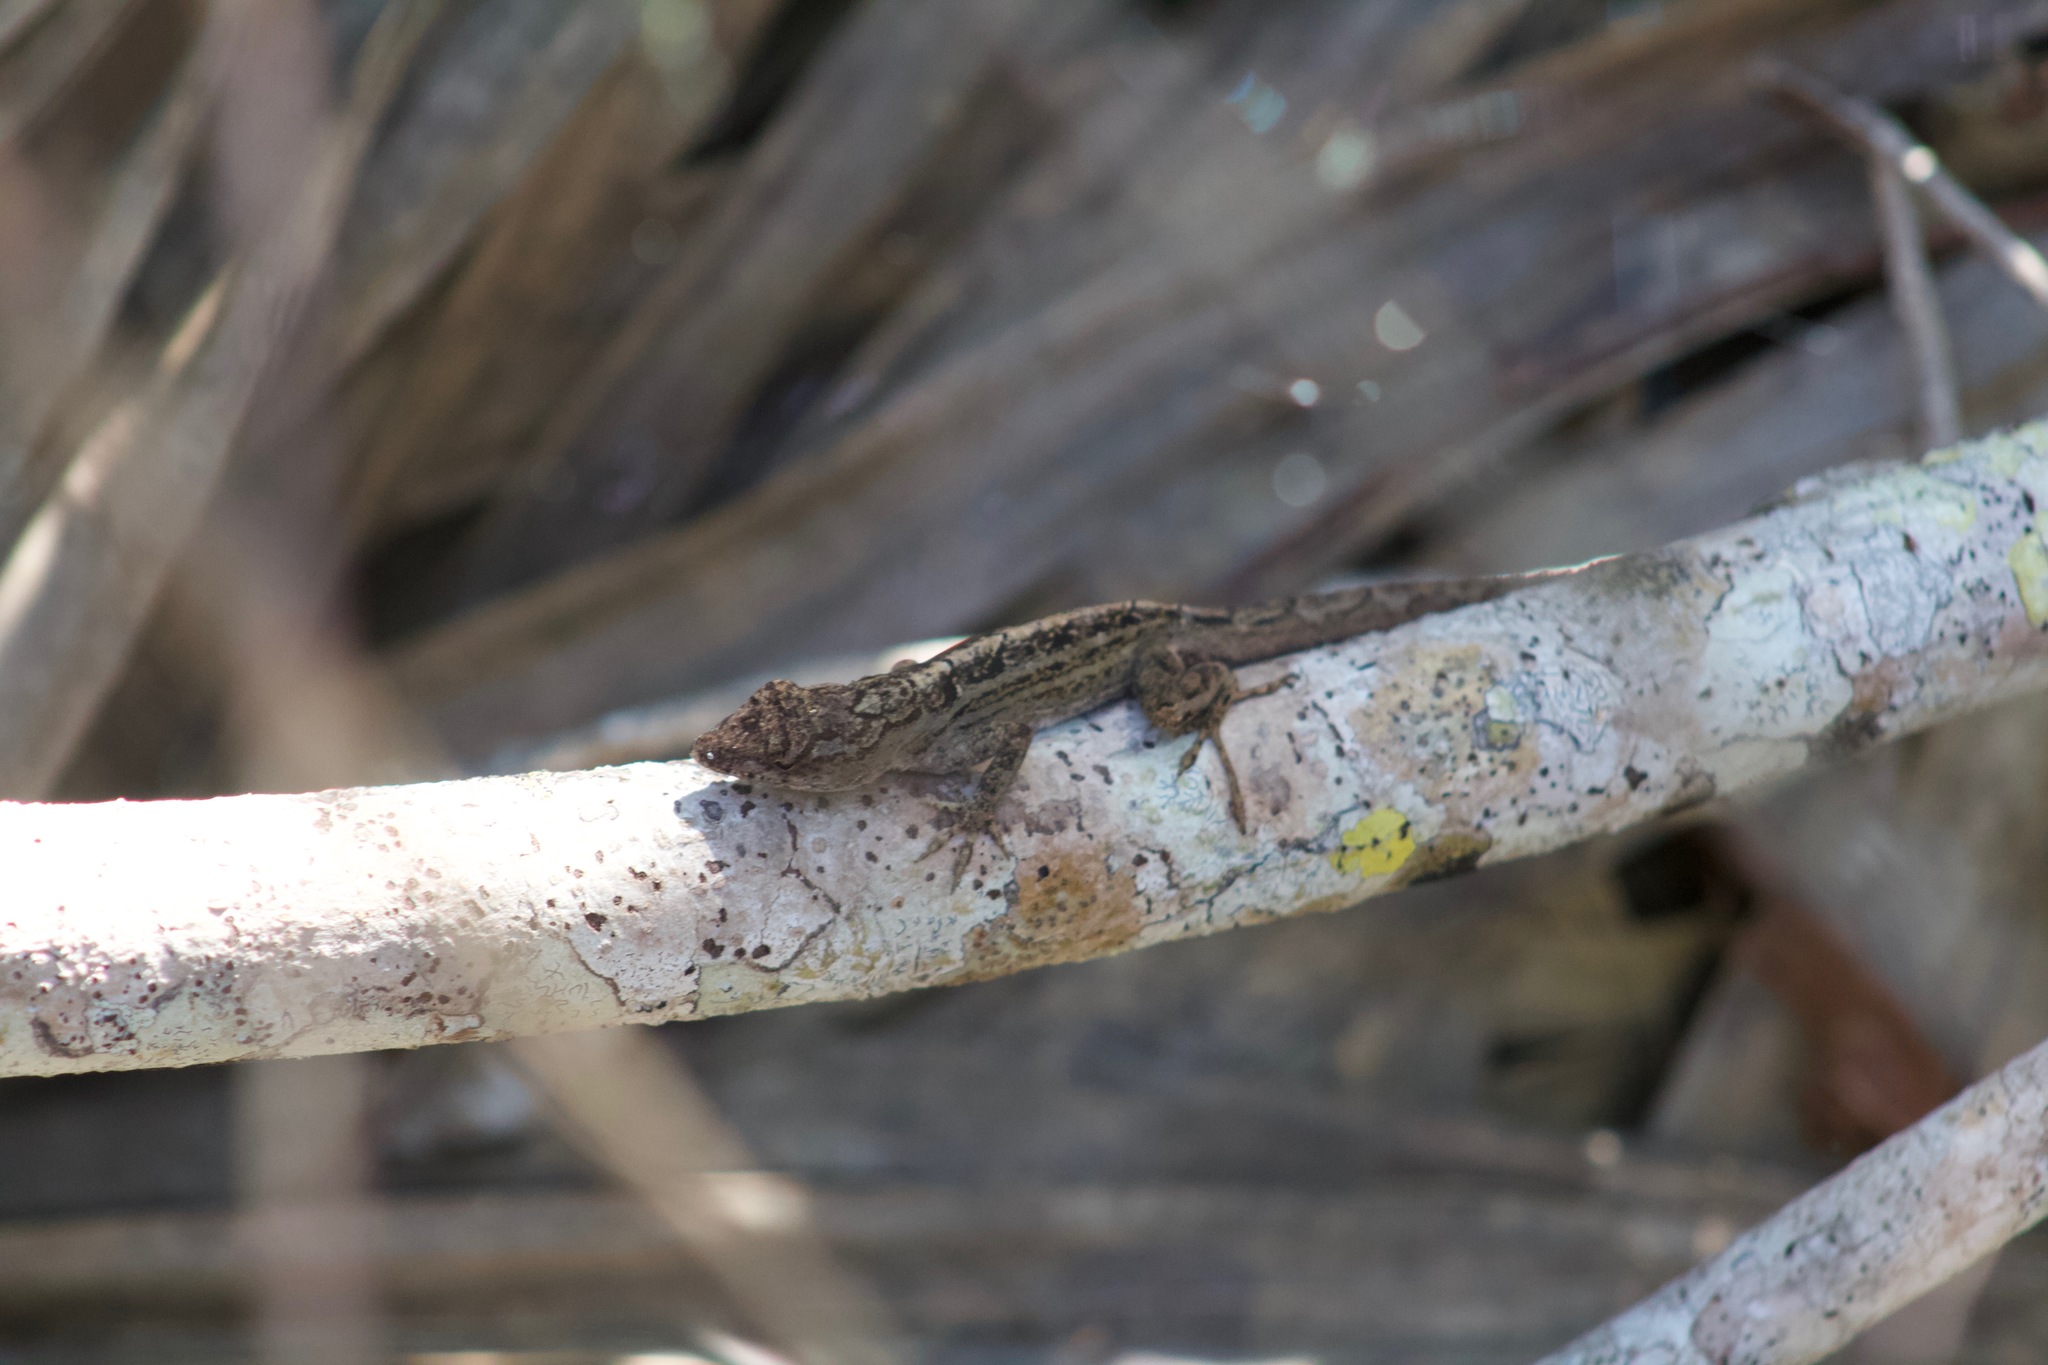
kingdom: Animalia
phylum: Chordata
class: Squamata
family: Dactyloidae
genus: Anolis
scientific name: Anolis sagrei
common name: Brown anole
